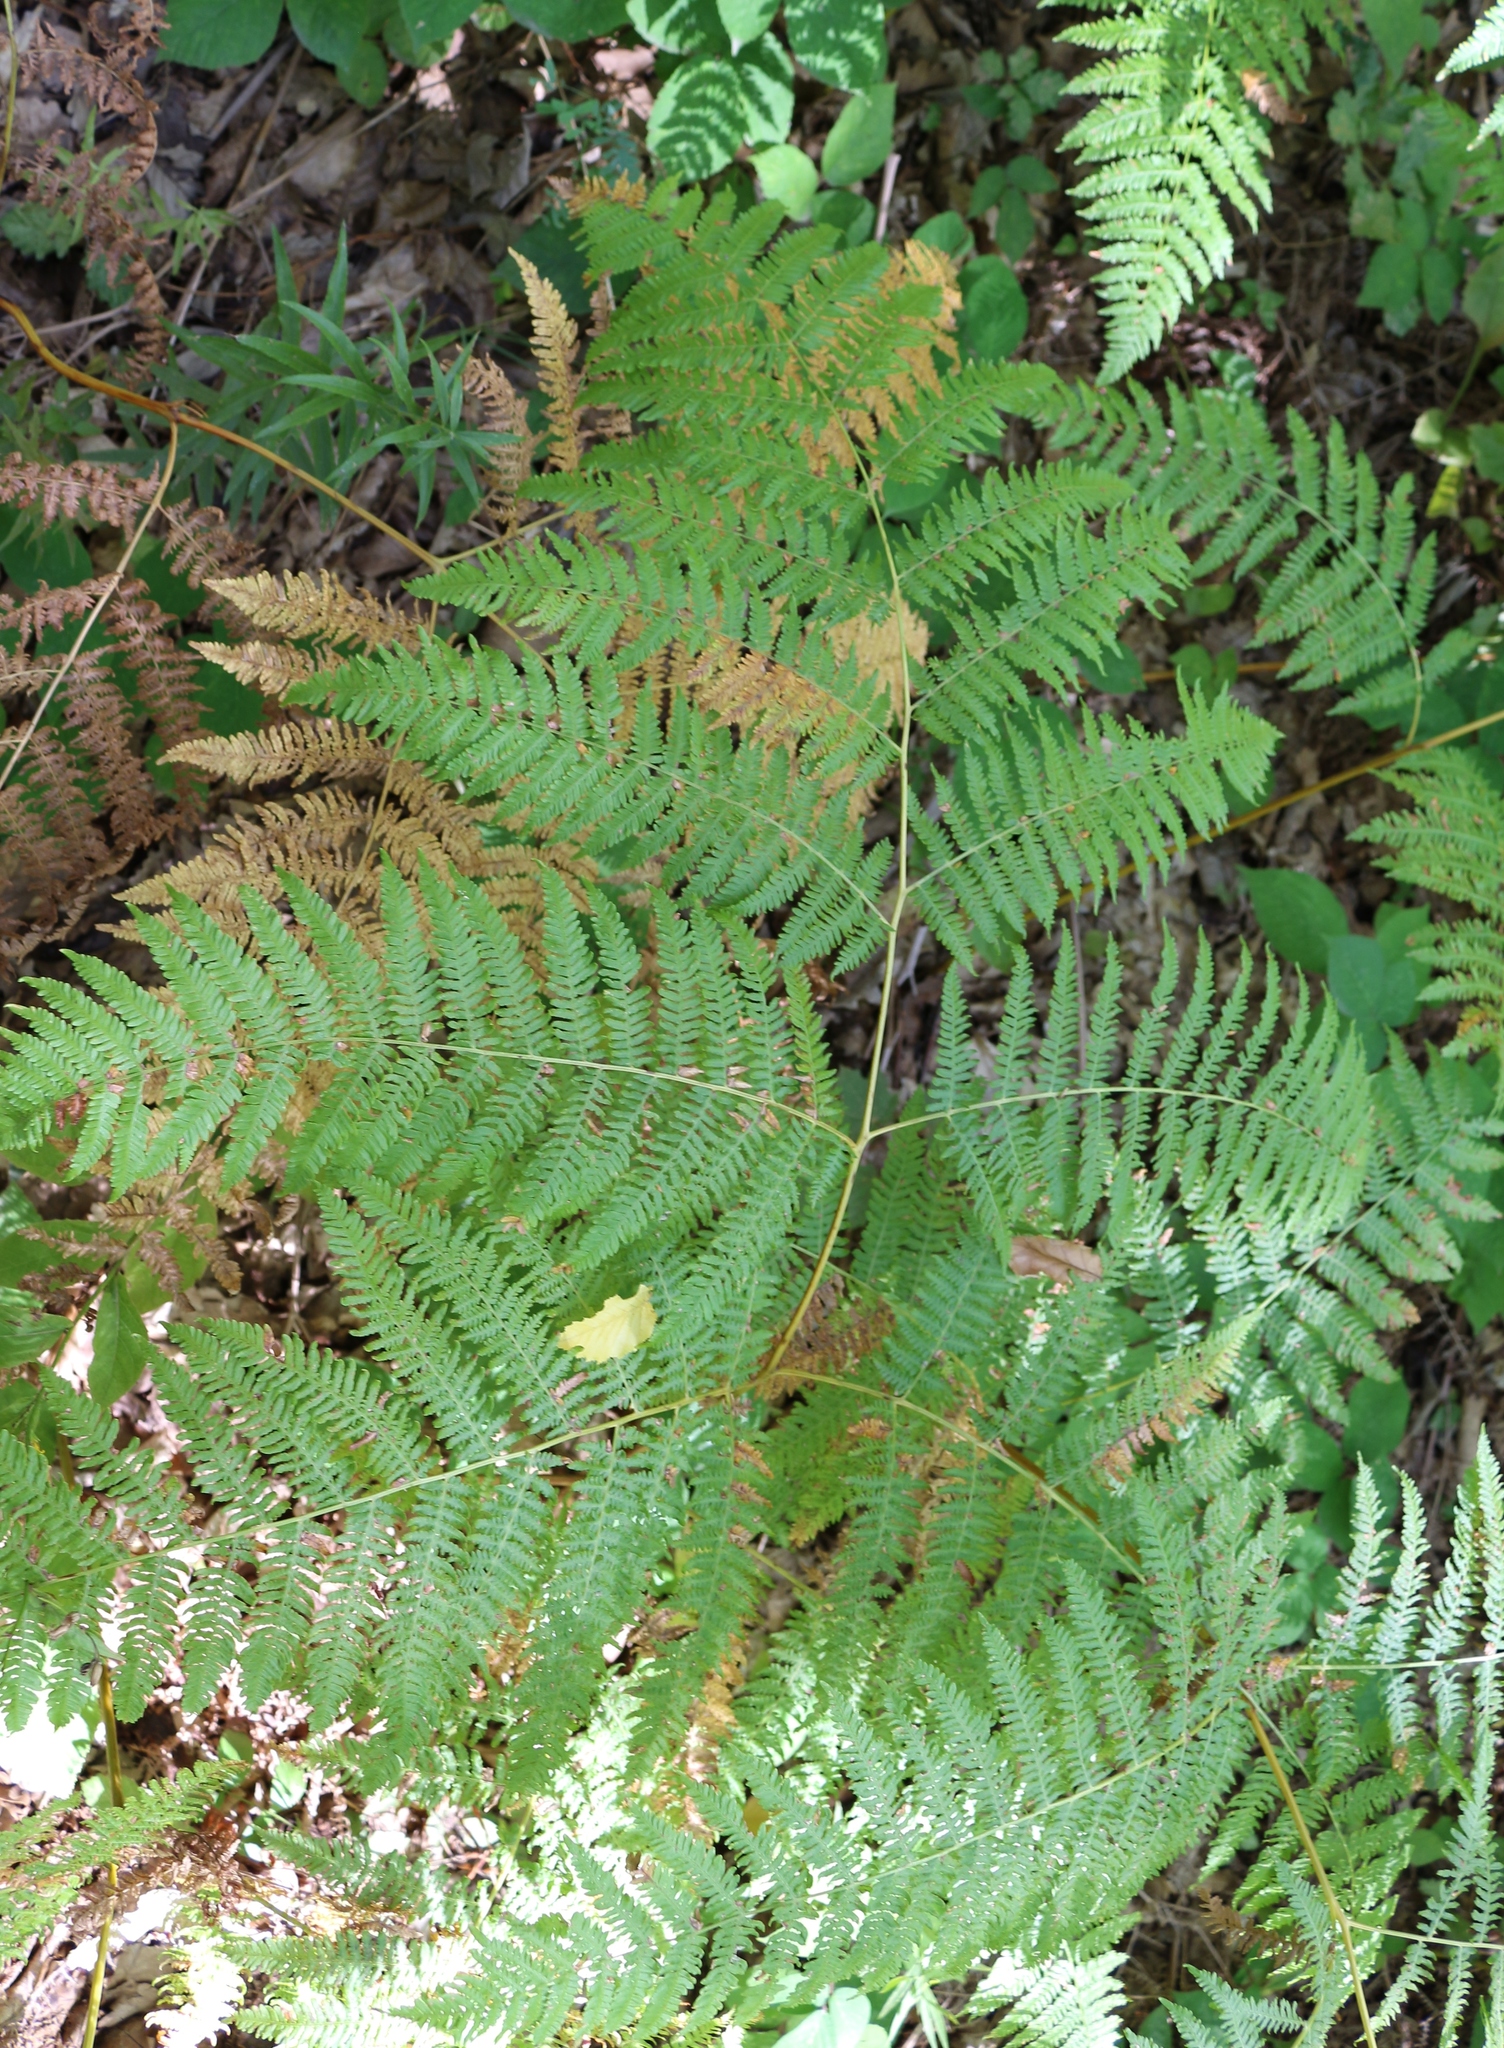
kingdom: Plantae
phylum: Tracheophyta
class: Polypodiopsida
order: Polypodiales
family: Dennstaedtiaceae
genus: Pteridium
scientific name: Pteridium tauricum
